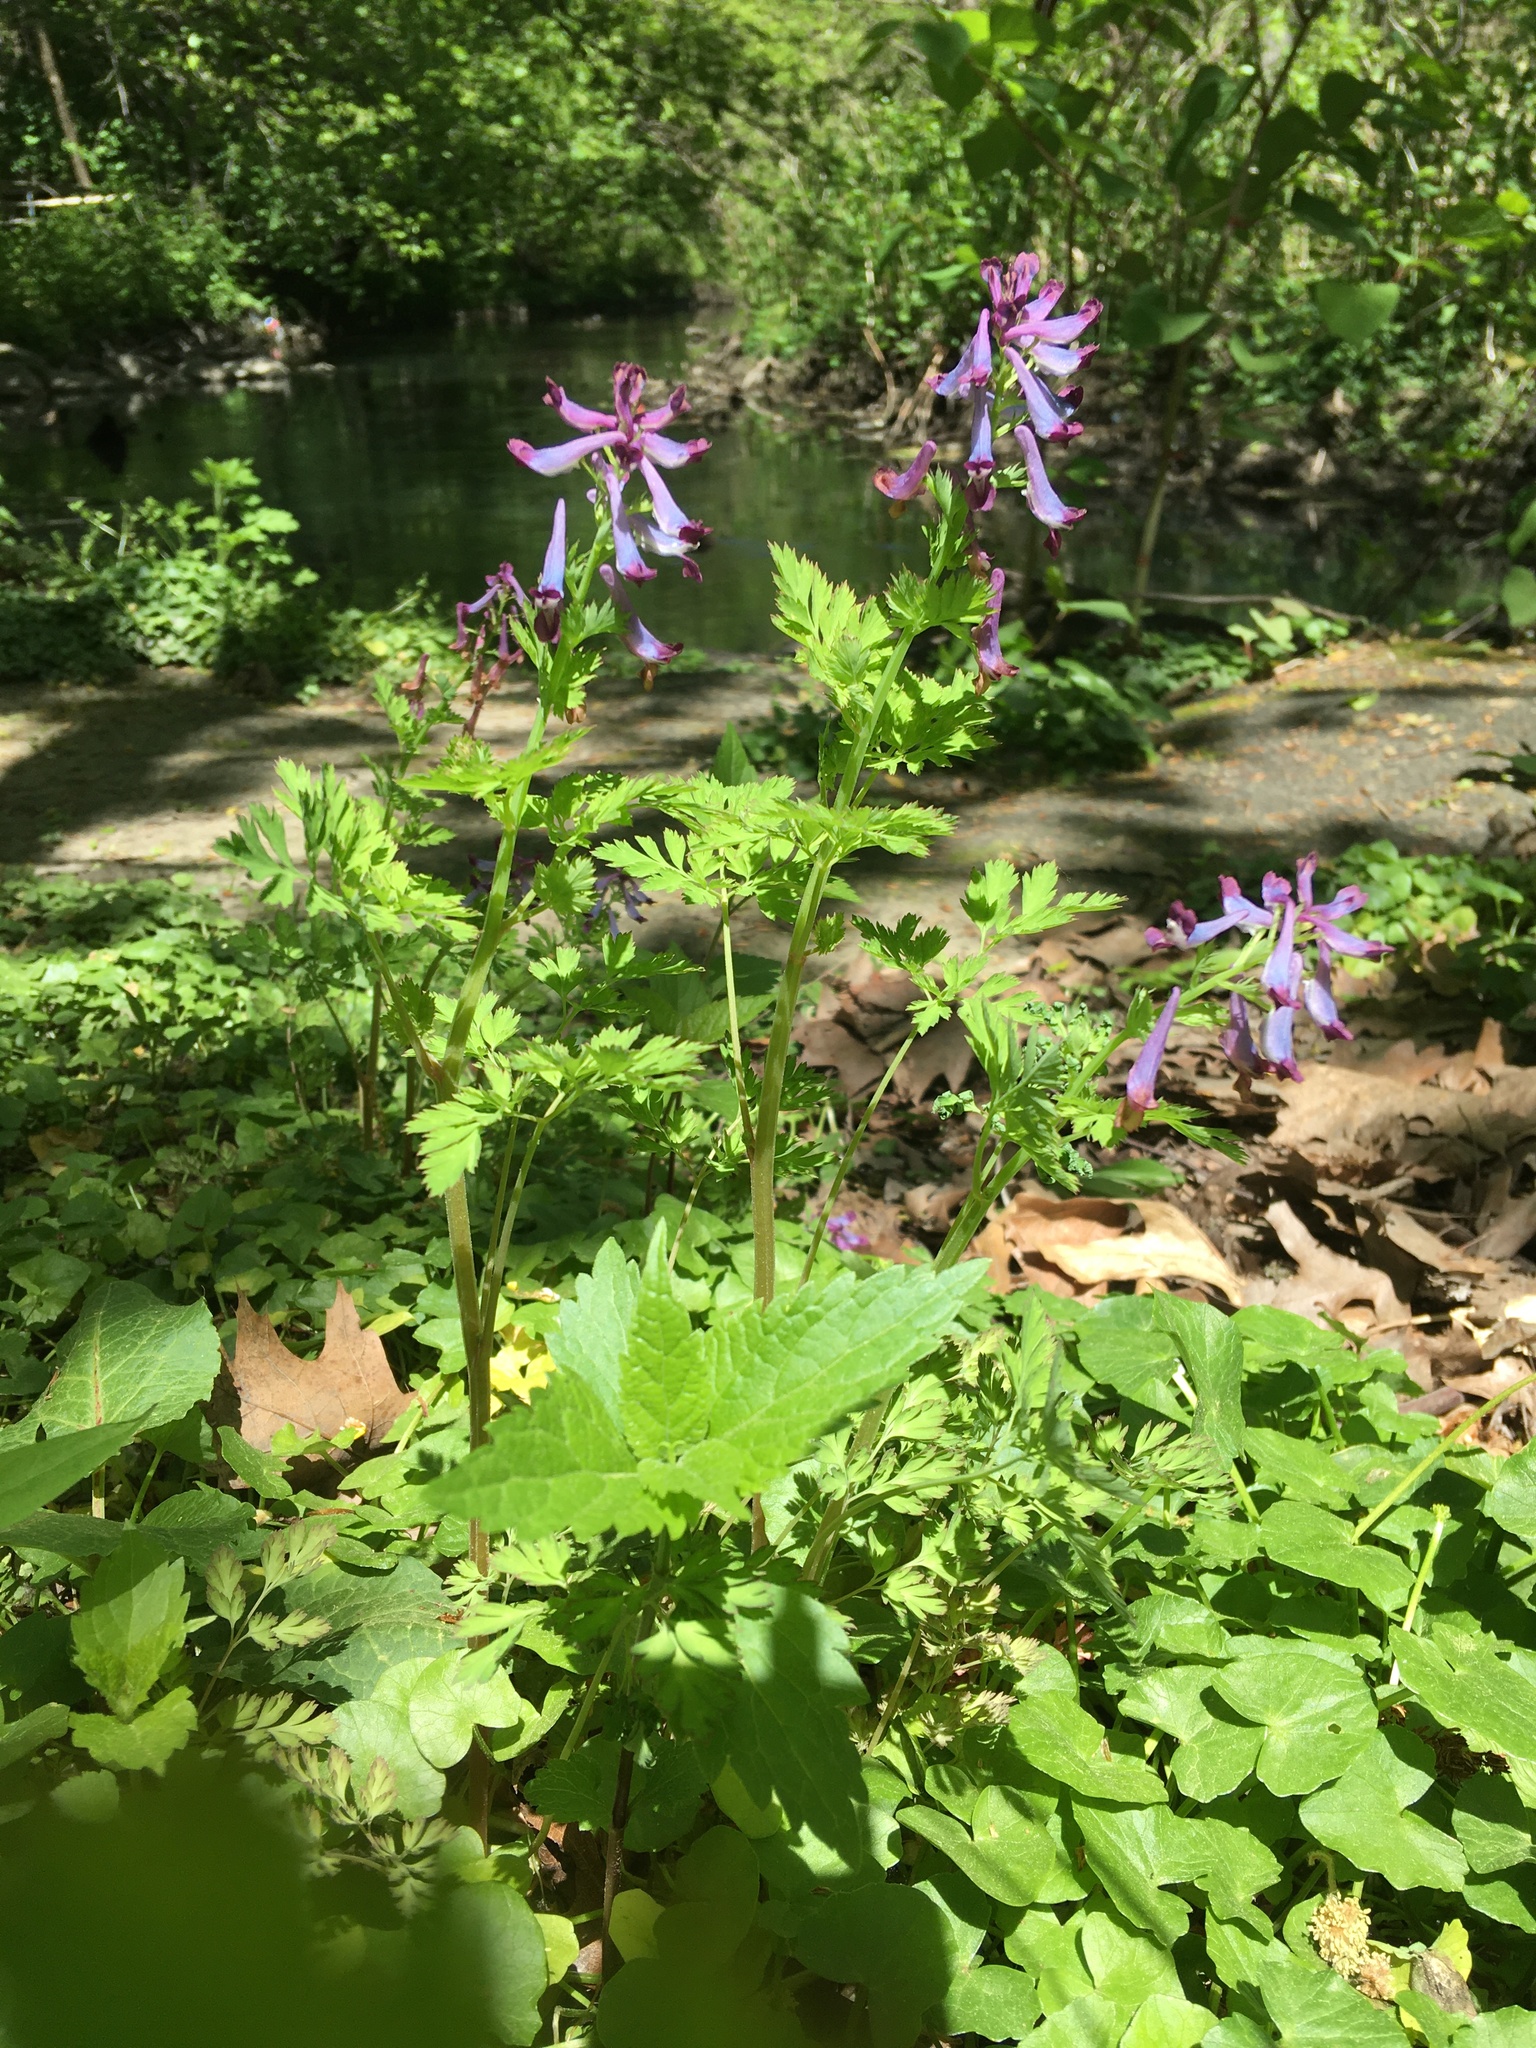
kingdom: Plantae
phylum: Tracheophyta
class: Magnoliopsida
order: Ranunculales
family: Papaveraceae
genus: Corydalis
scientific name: Corydalis incisa
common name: Incised fumewort
